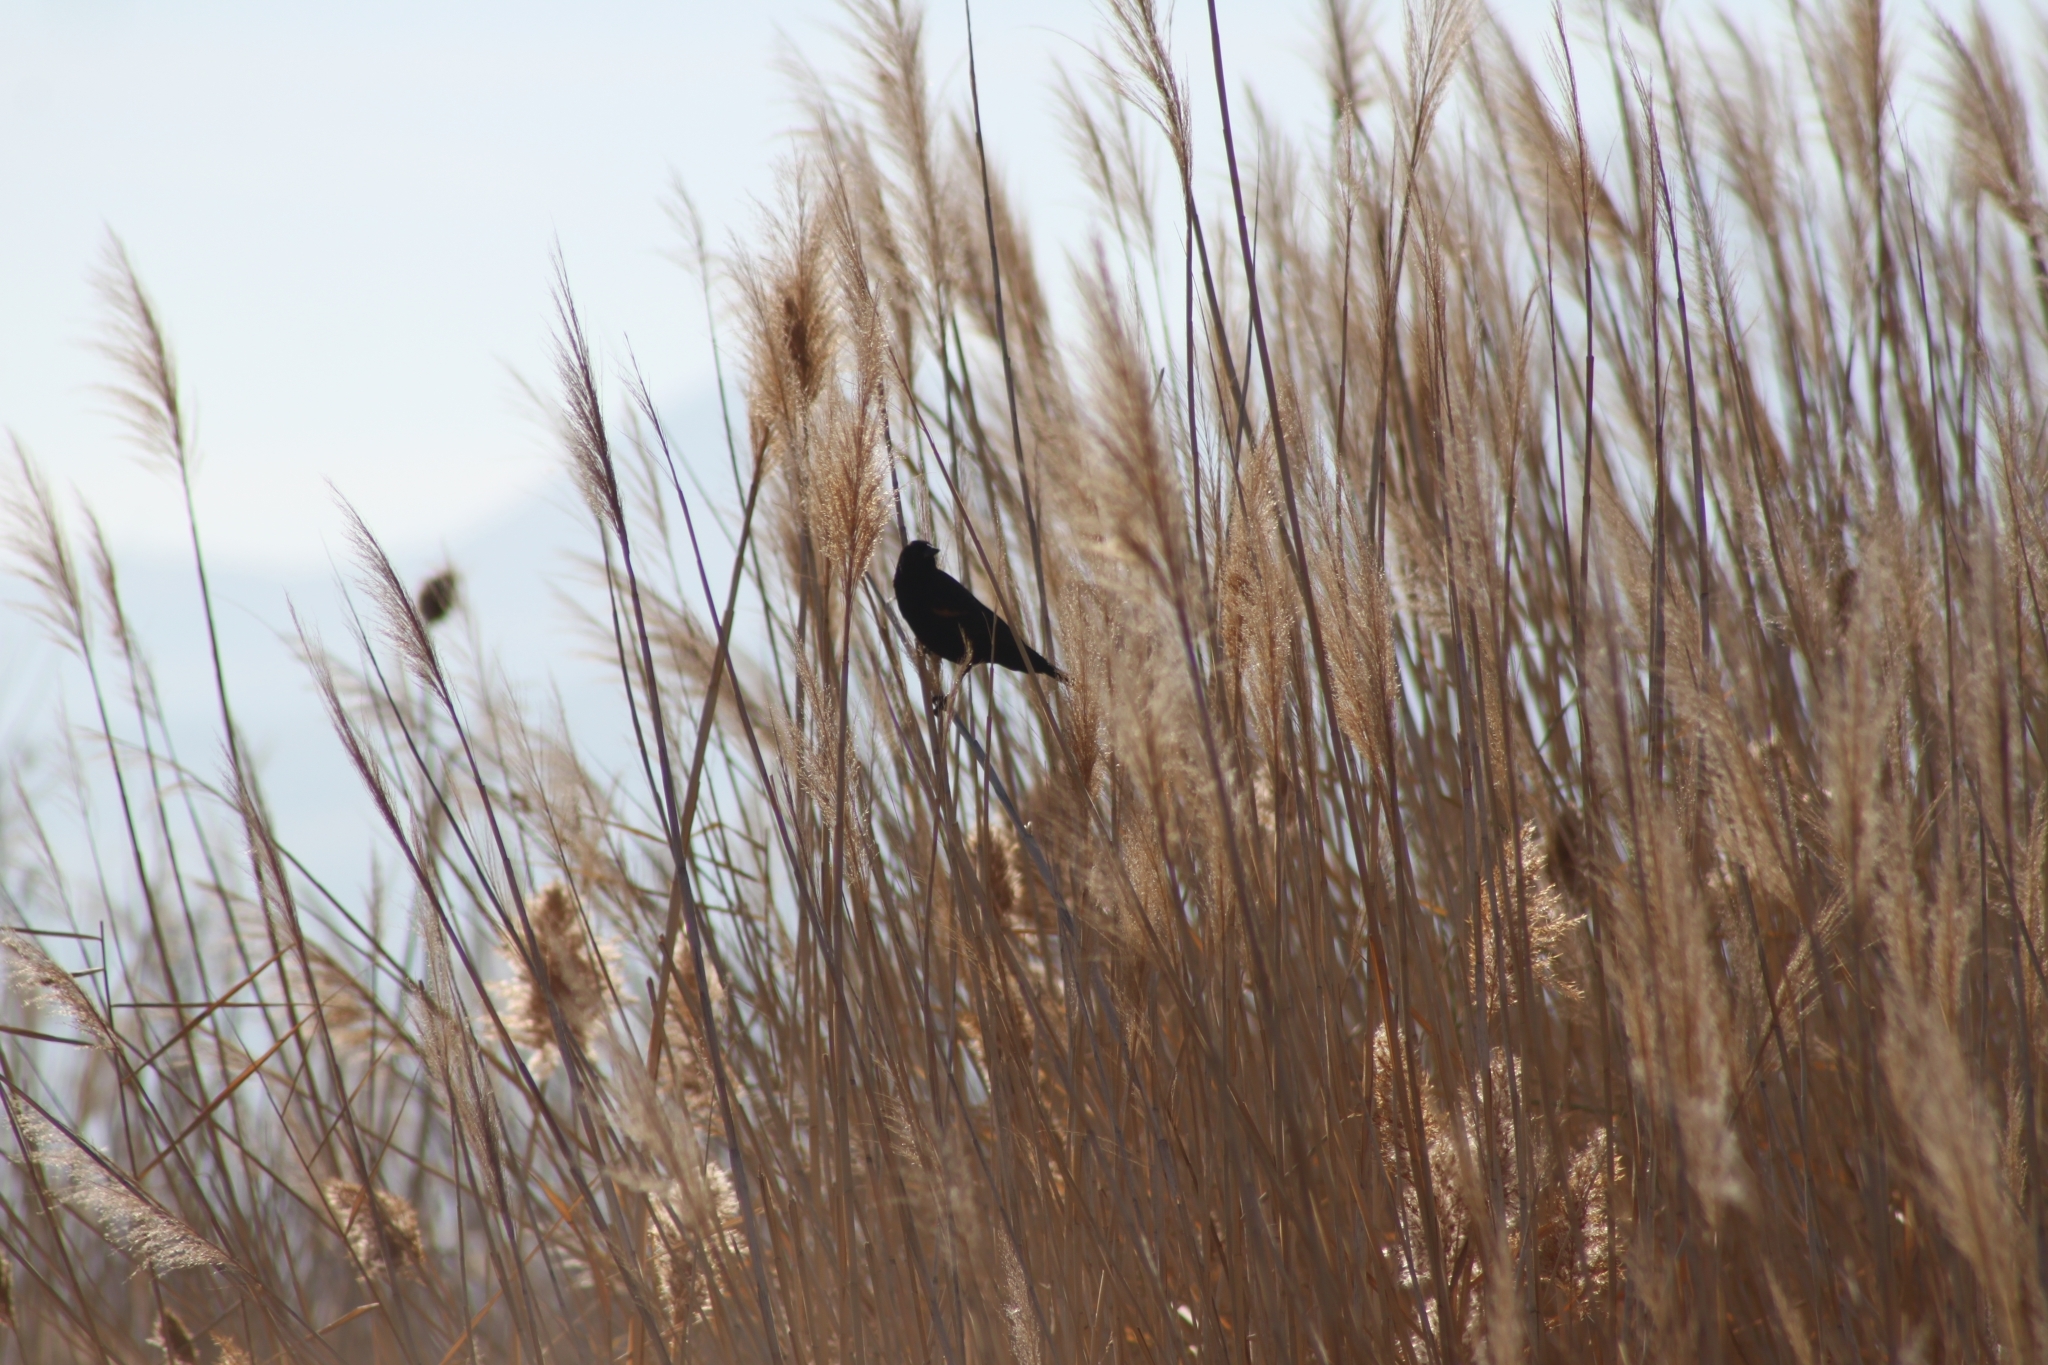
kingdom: Animalia
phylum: Chordata
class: Aves
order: Passeriformes
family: Icteridae
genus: Agelaius
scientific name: Agelaius phoeniceus
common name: Red-winged blackbird
